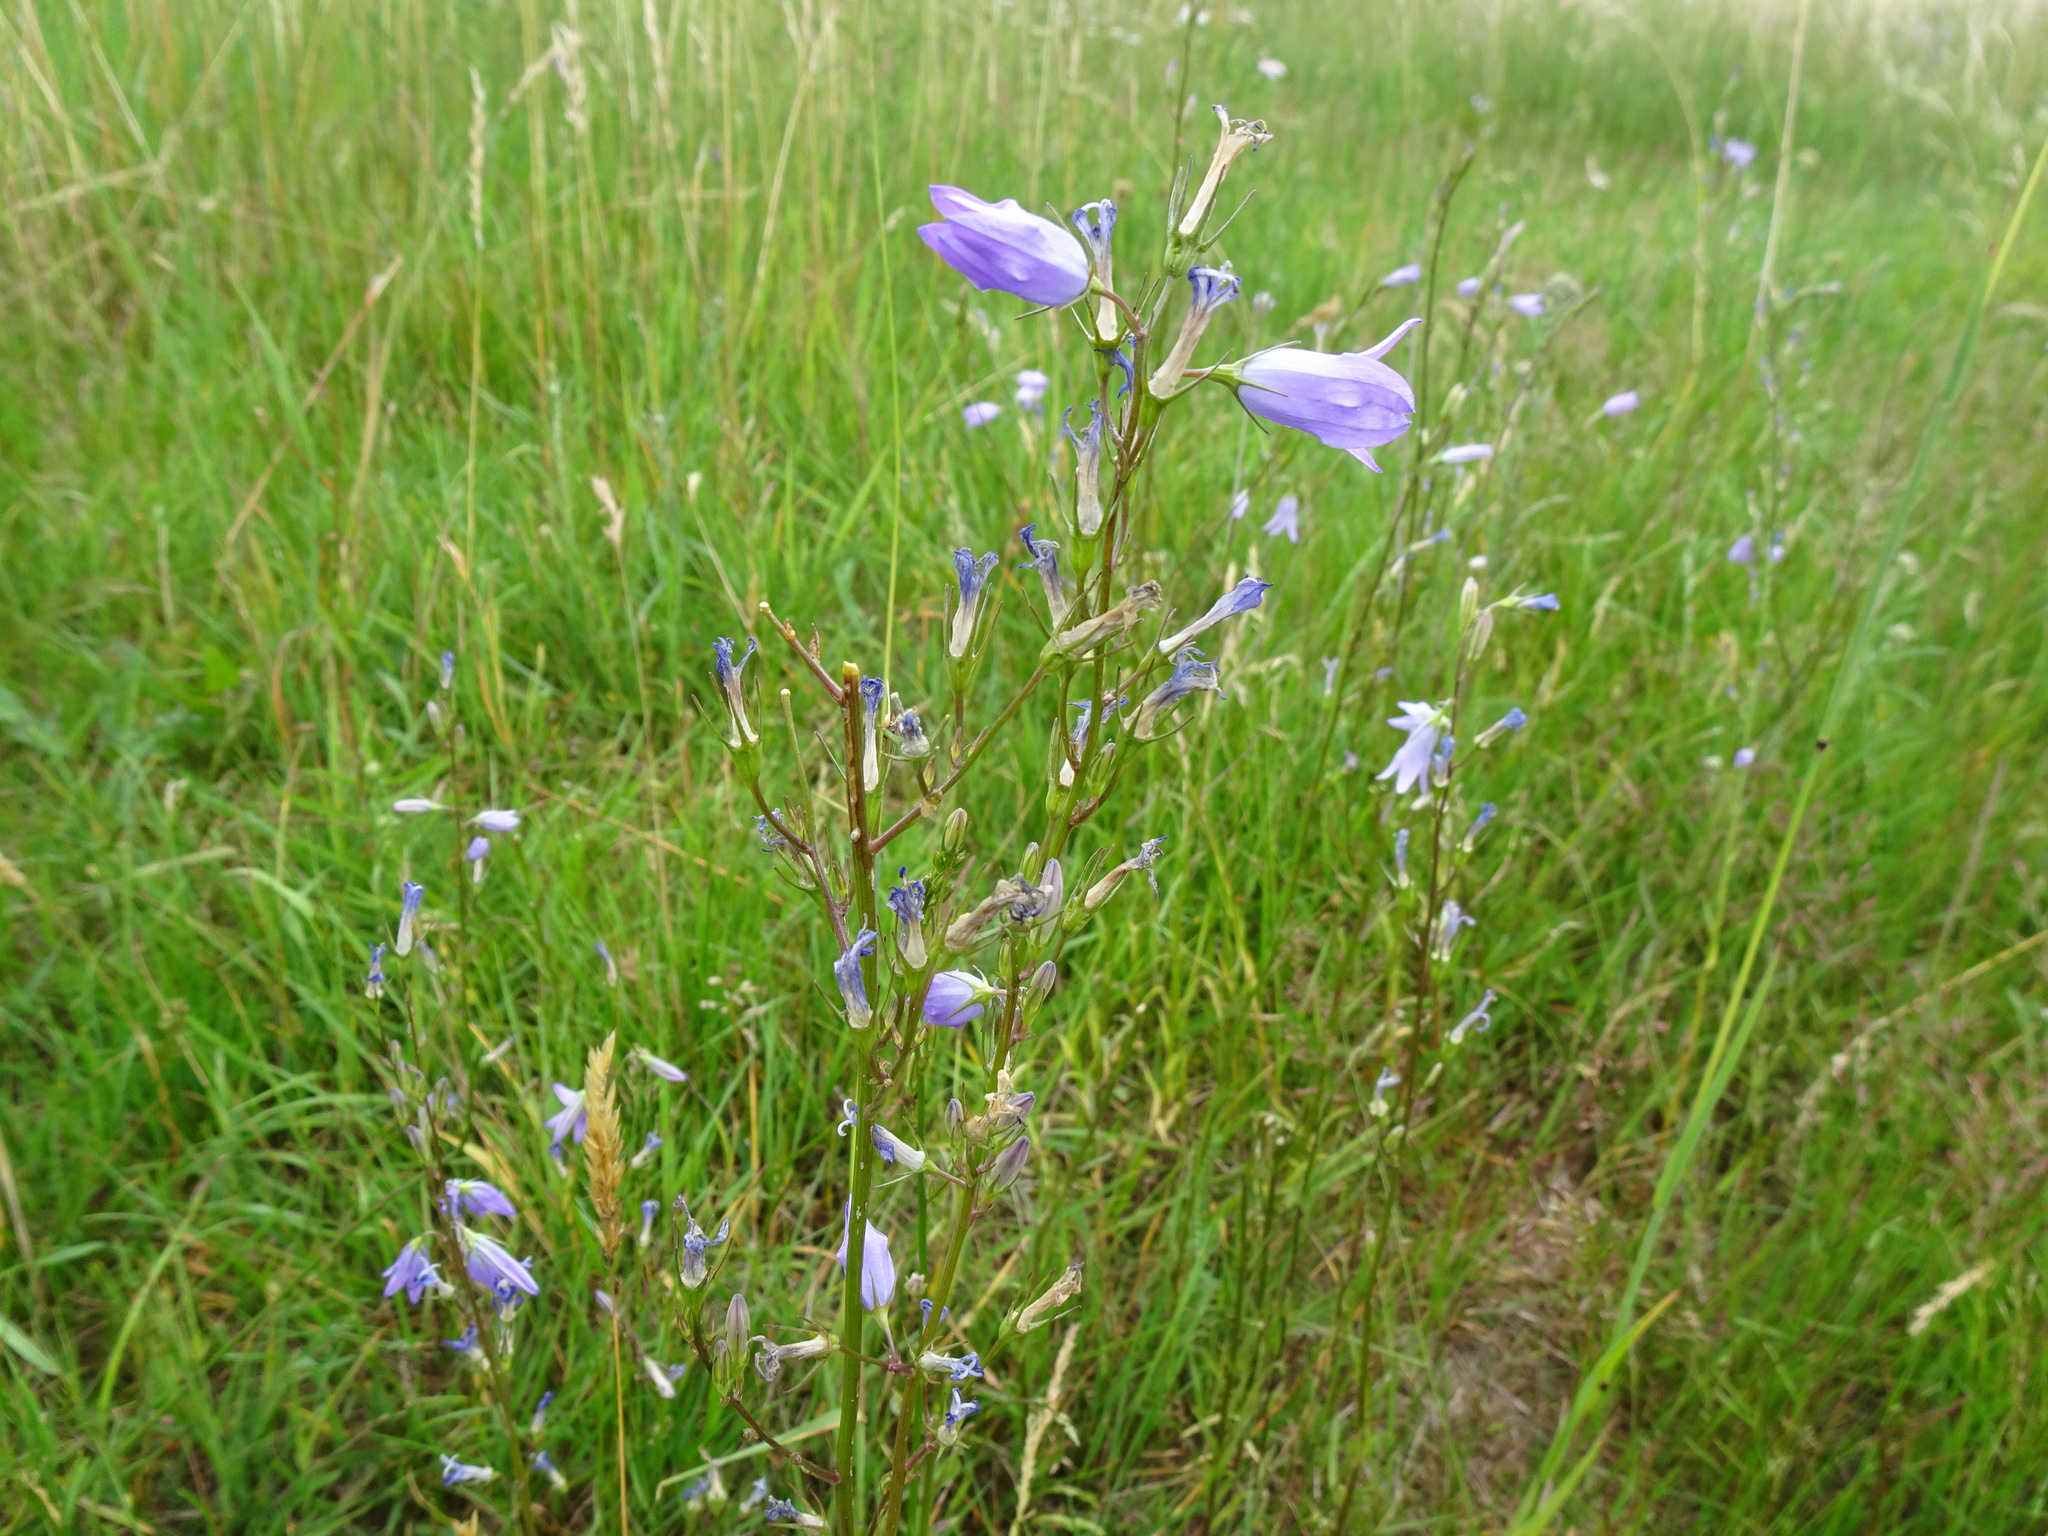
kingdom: Plantae
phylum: Tracheophyta
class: Magnoliopsida
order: Asterales
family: Campanulaceae
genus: Campanula
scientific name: Campanula rapunculus
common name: Rampion bellflower
